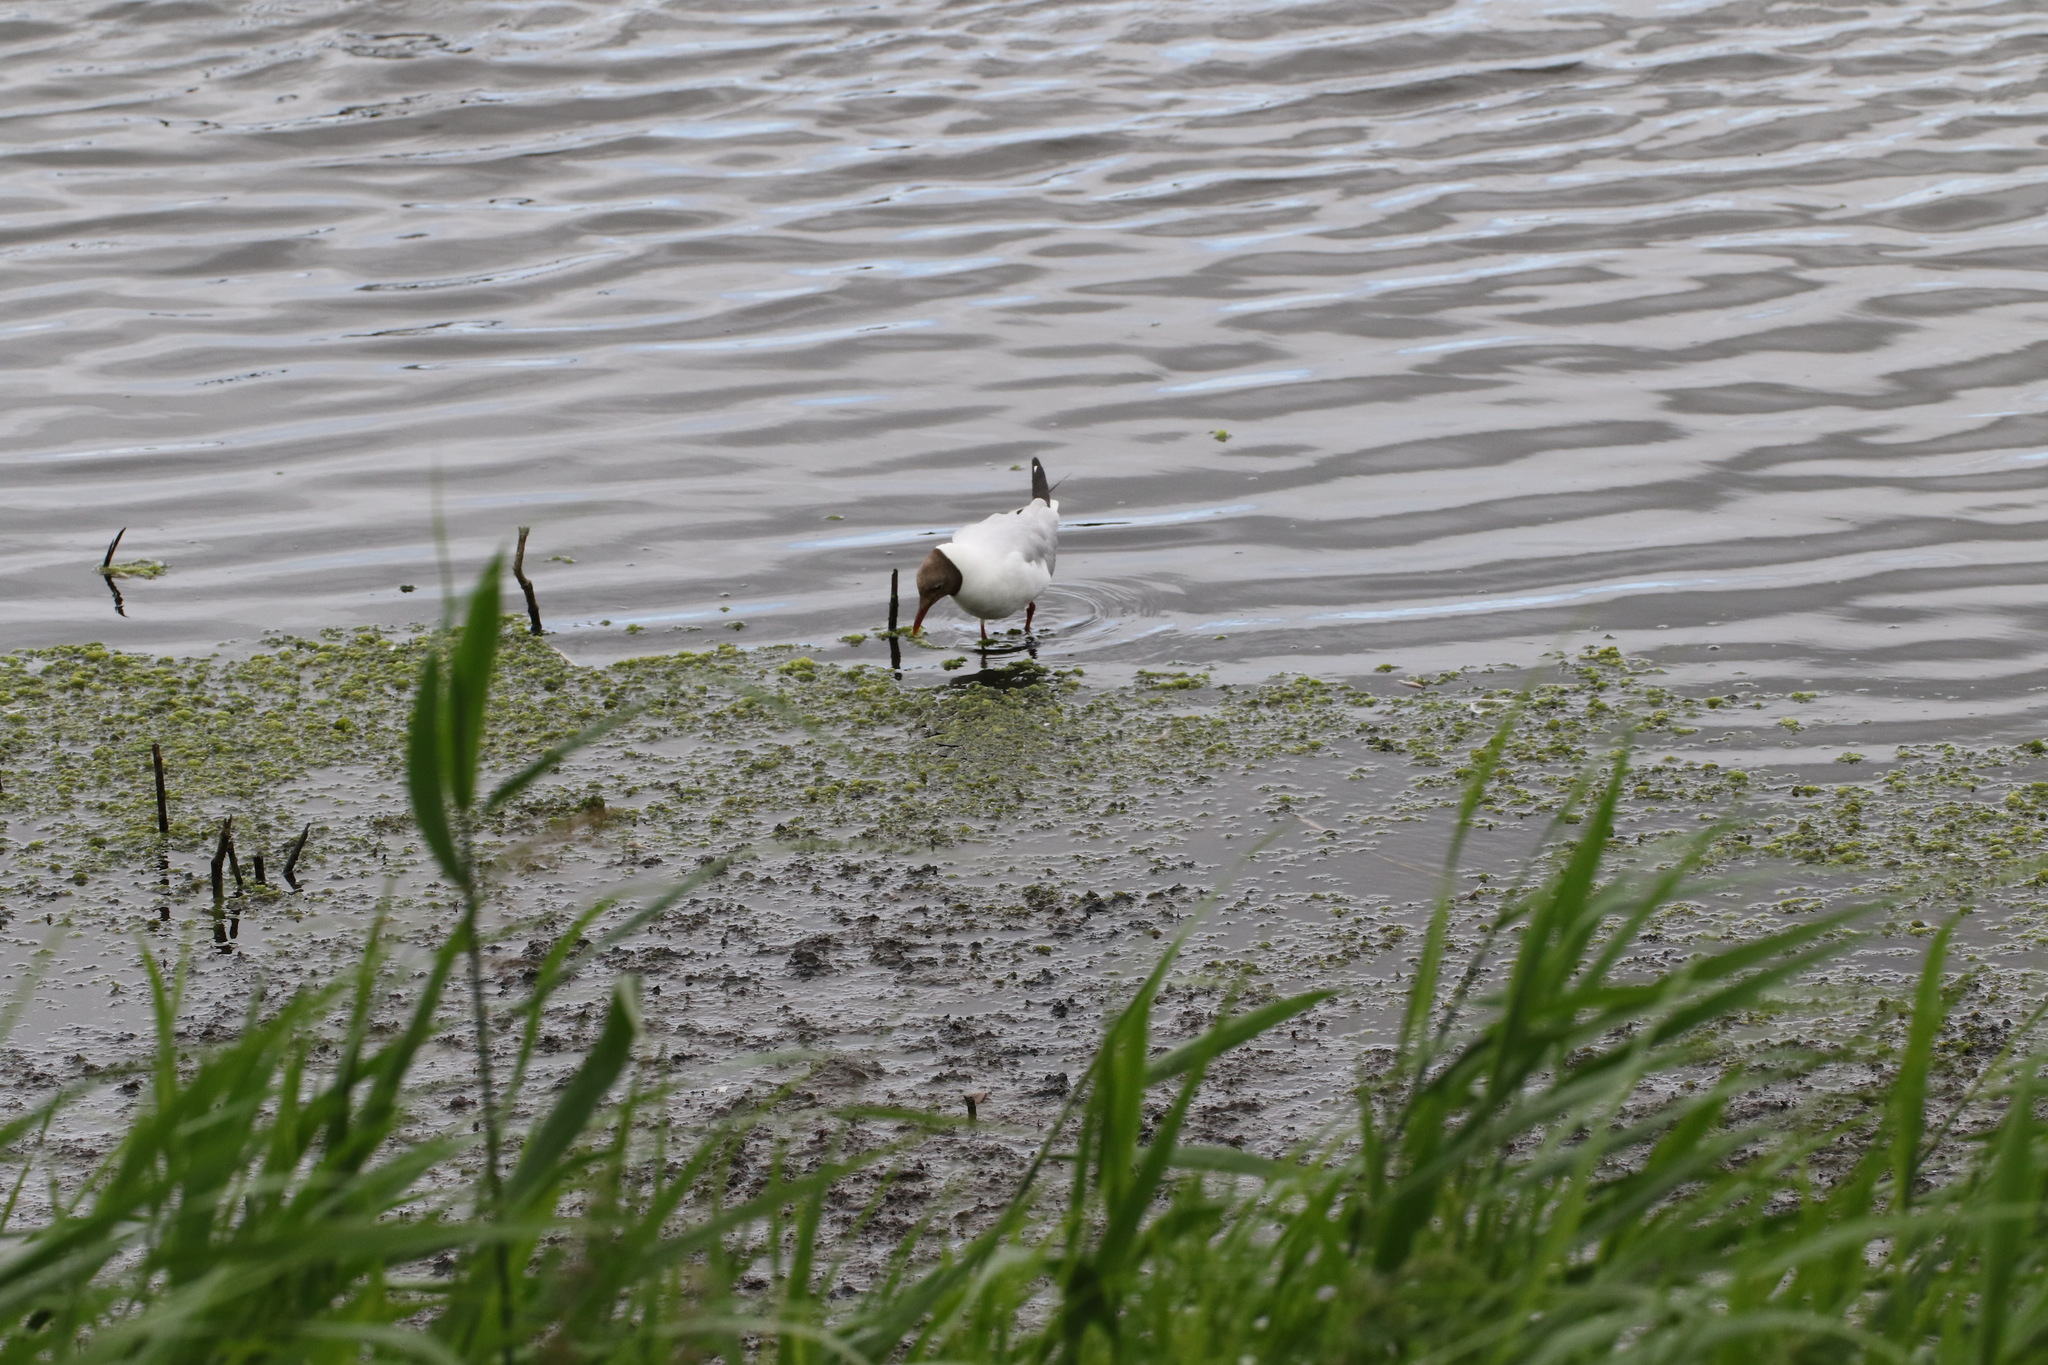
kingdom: Animalia
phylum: Chordata
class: Aves
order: Charadriiformes
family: Laridae
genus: Chroicocephalus
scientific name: Chroicocephalus ridibundus
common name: Black-headed gull
